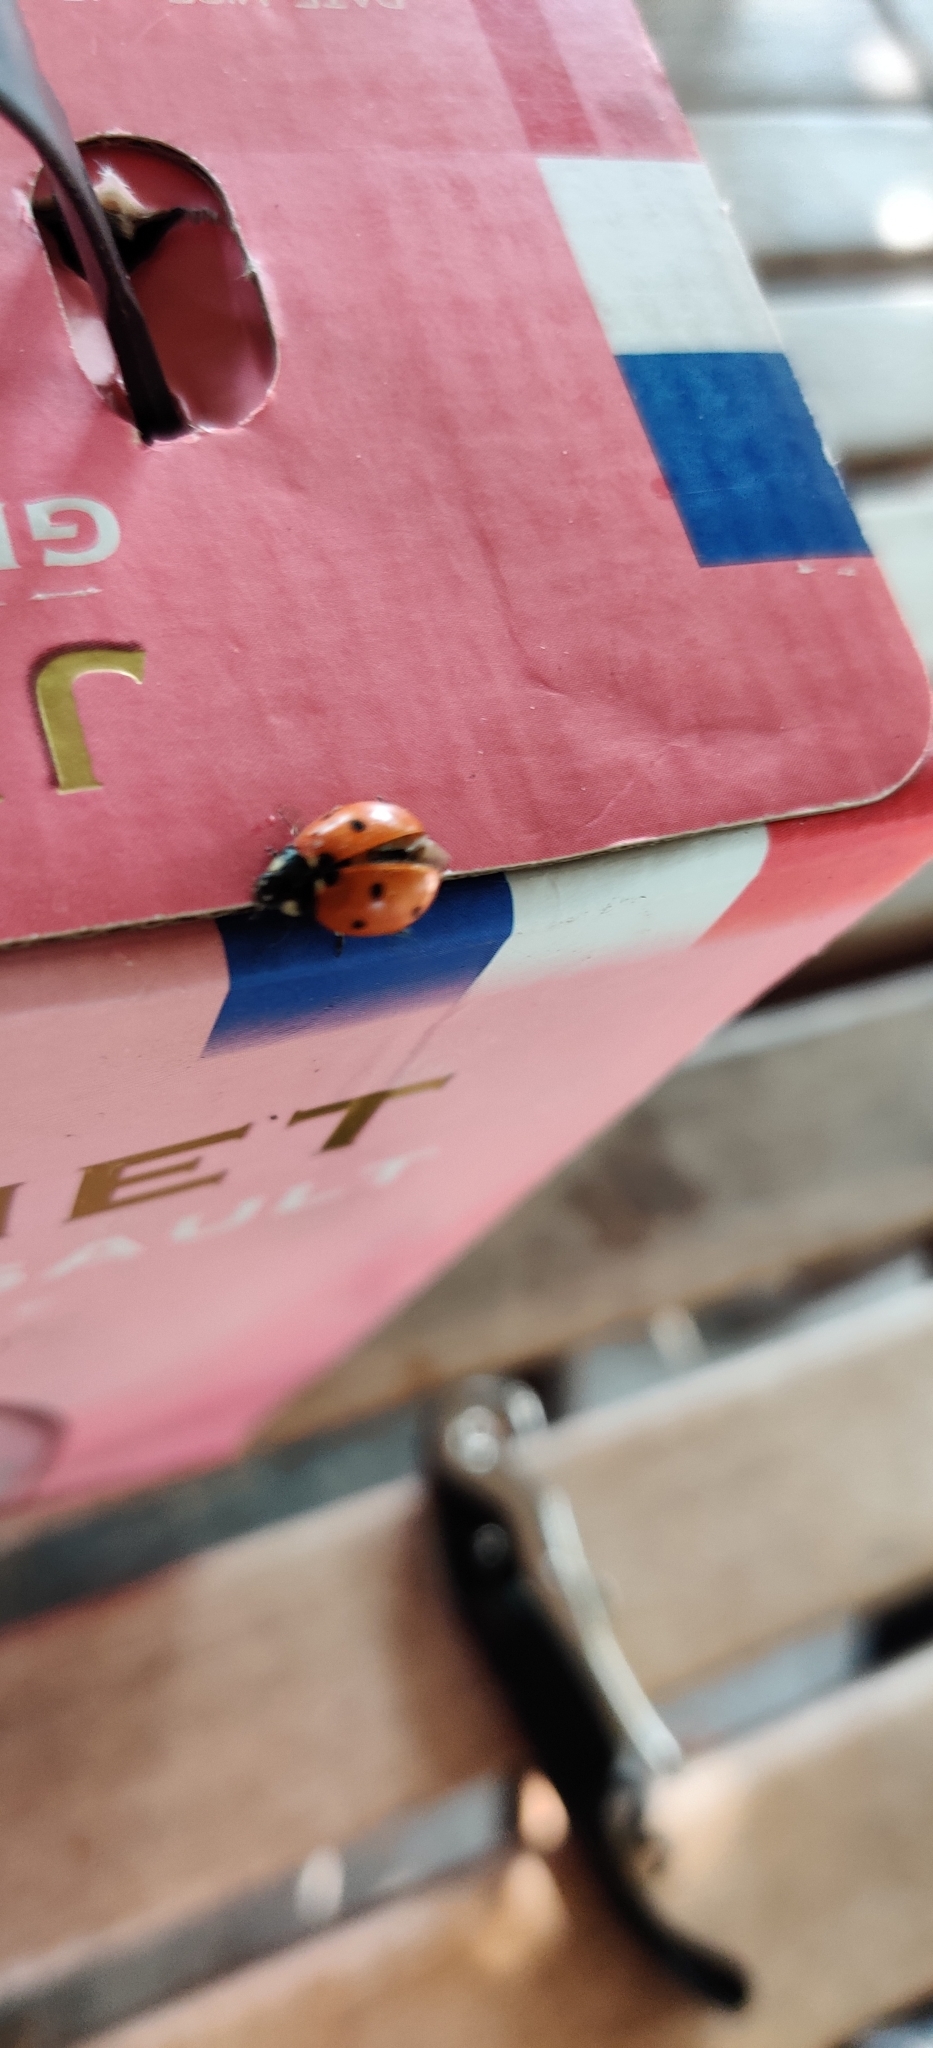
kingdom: Animalia
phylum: Arthropoda
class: Insecta
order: Coleoptera
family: Coccinellidae
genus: Coccinella
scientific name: Coccinella septempunctata
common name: Sevenspotted lady beetle
